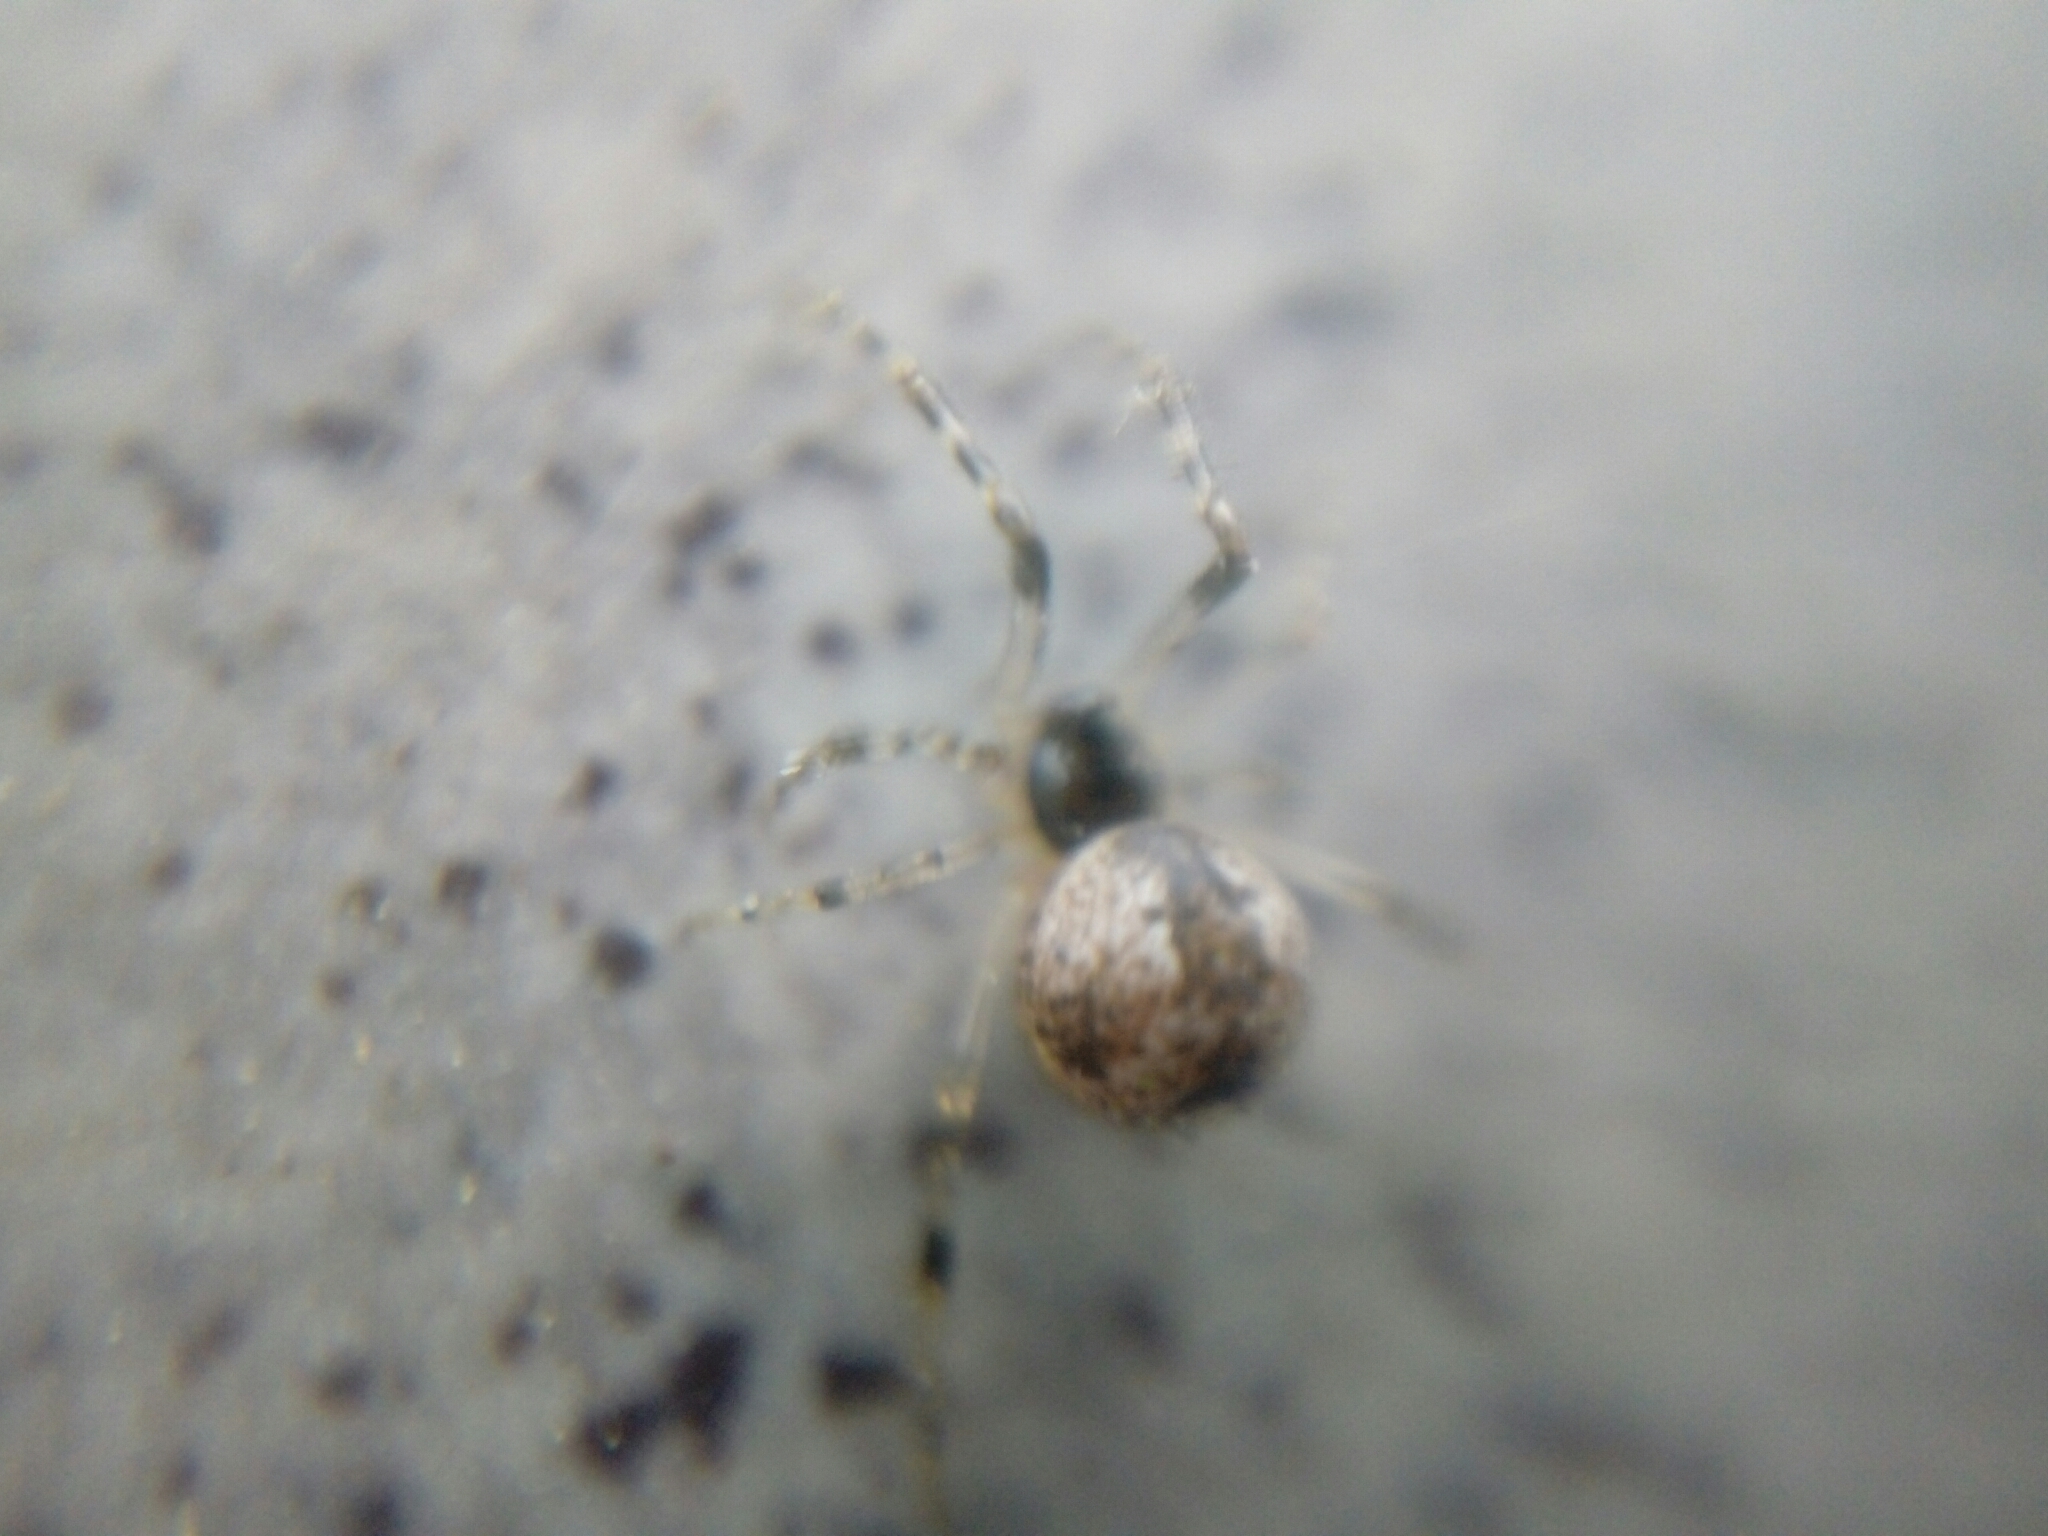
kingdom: Animalia
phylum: Arthropoda
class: Arachnida
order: Araneae
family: Theridiidae
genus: Parasteatoda
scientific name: Parasteatoda tepidariorum
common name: Common house spider
